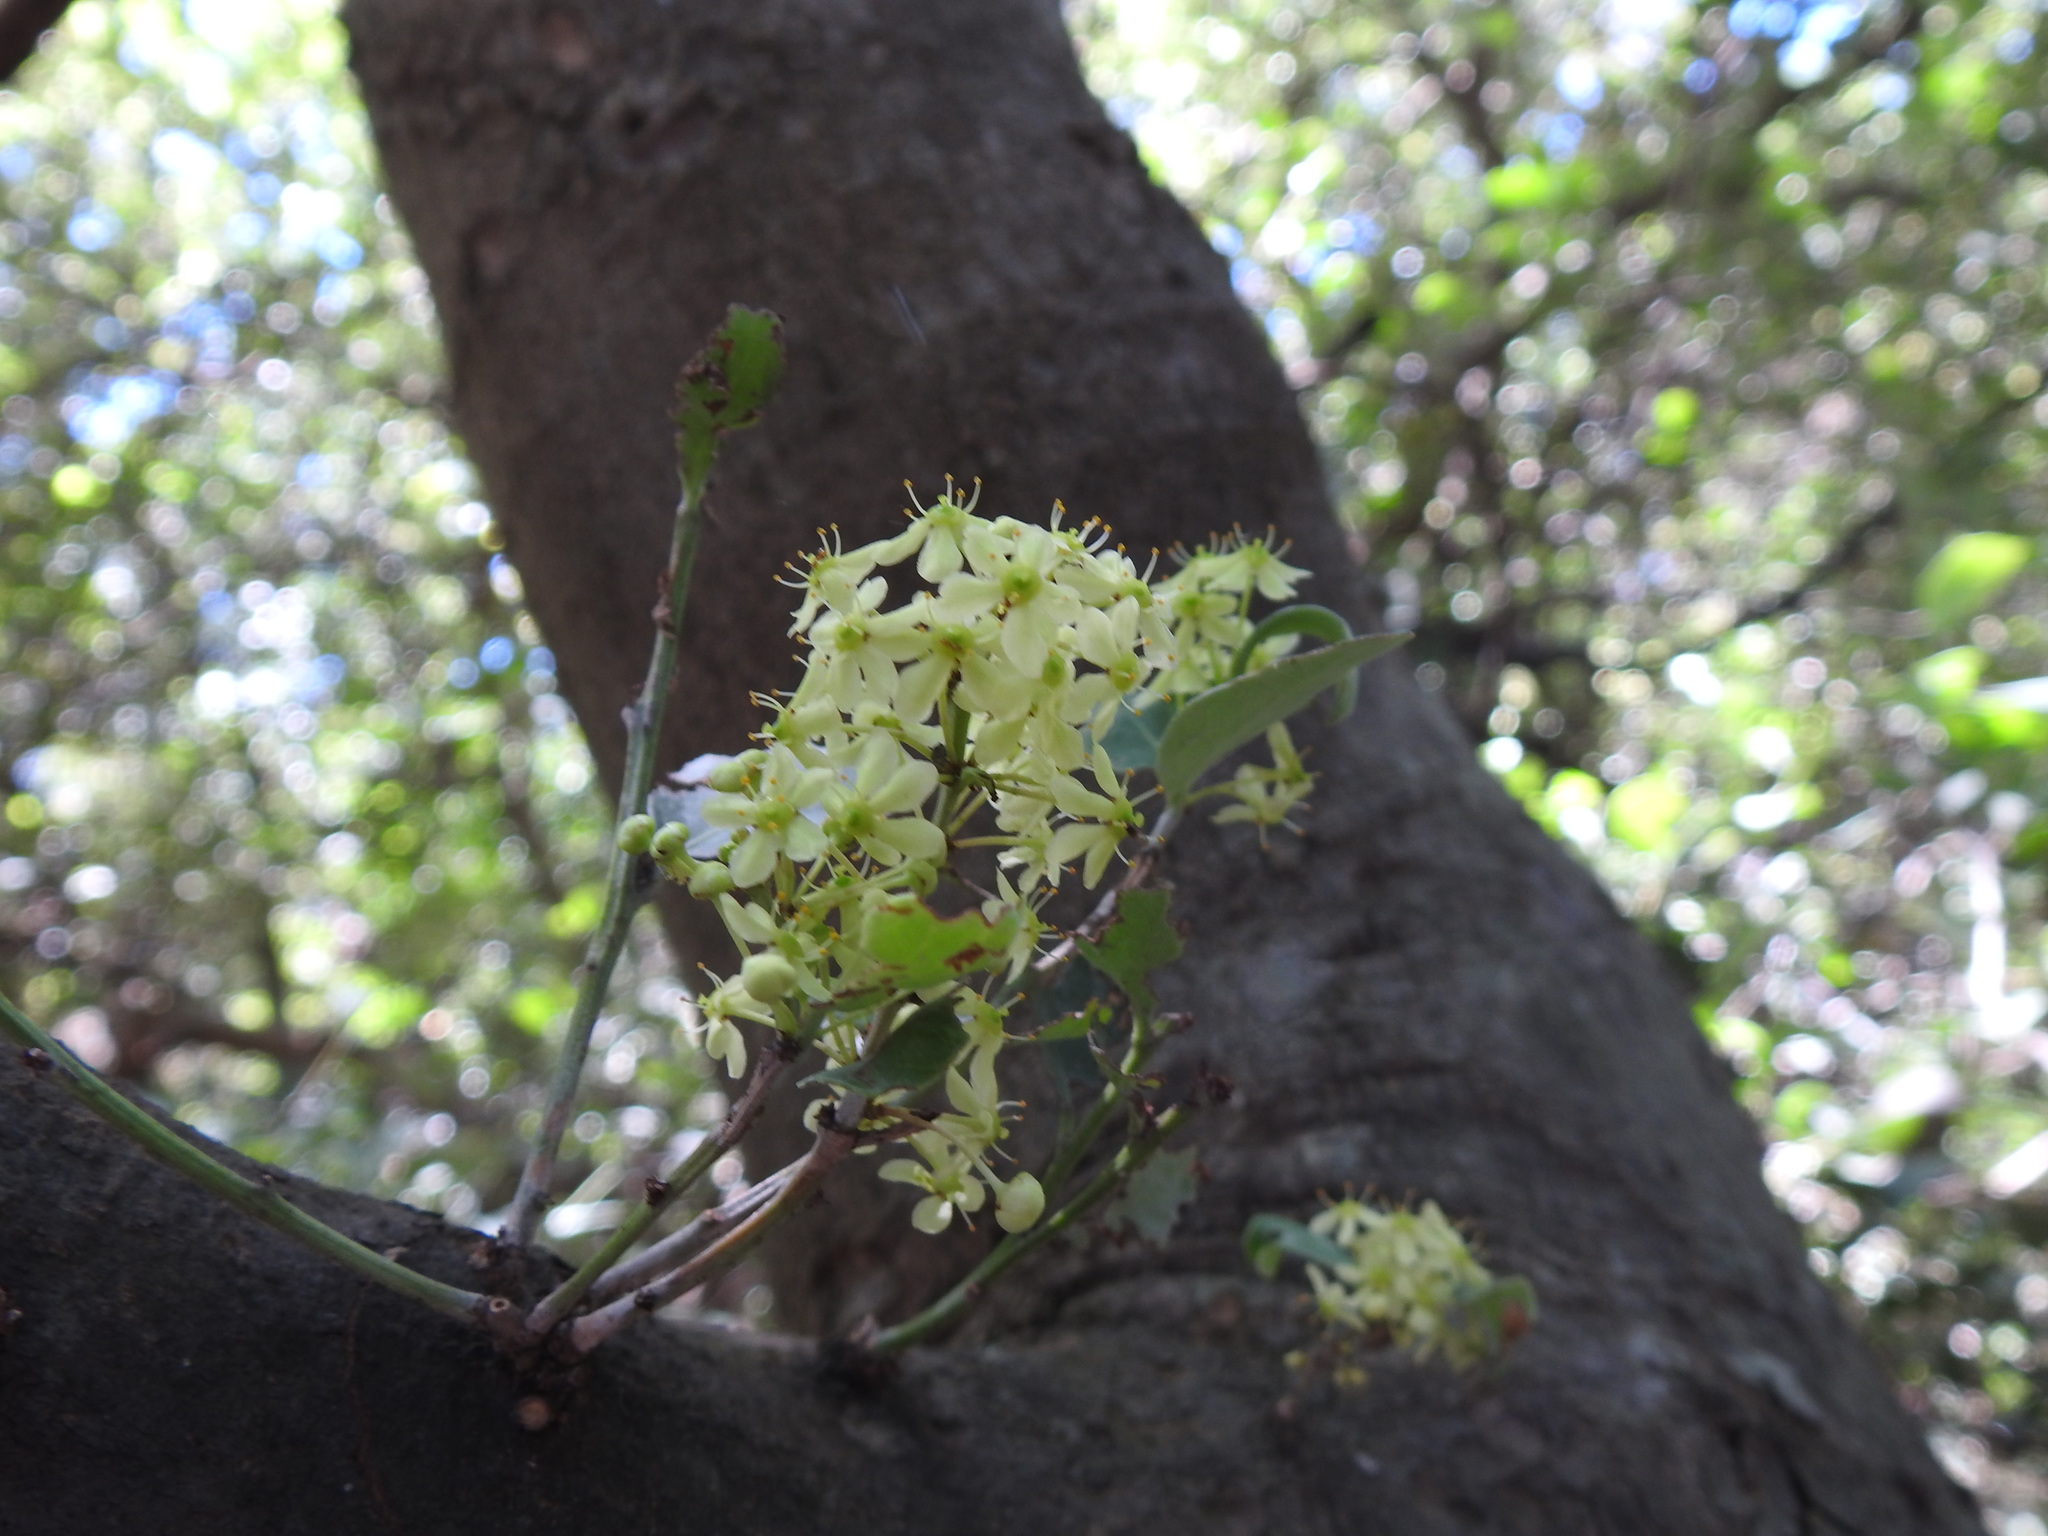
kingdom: Plantae
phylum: Tracheophyta
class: Magnoliopsida
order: Celastrales
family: Celastraceae
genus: Gymnosporia
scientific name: Gymnosporia undata
